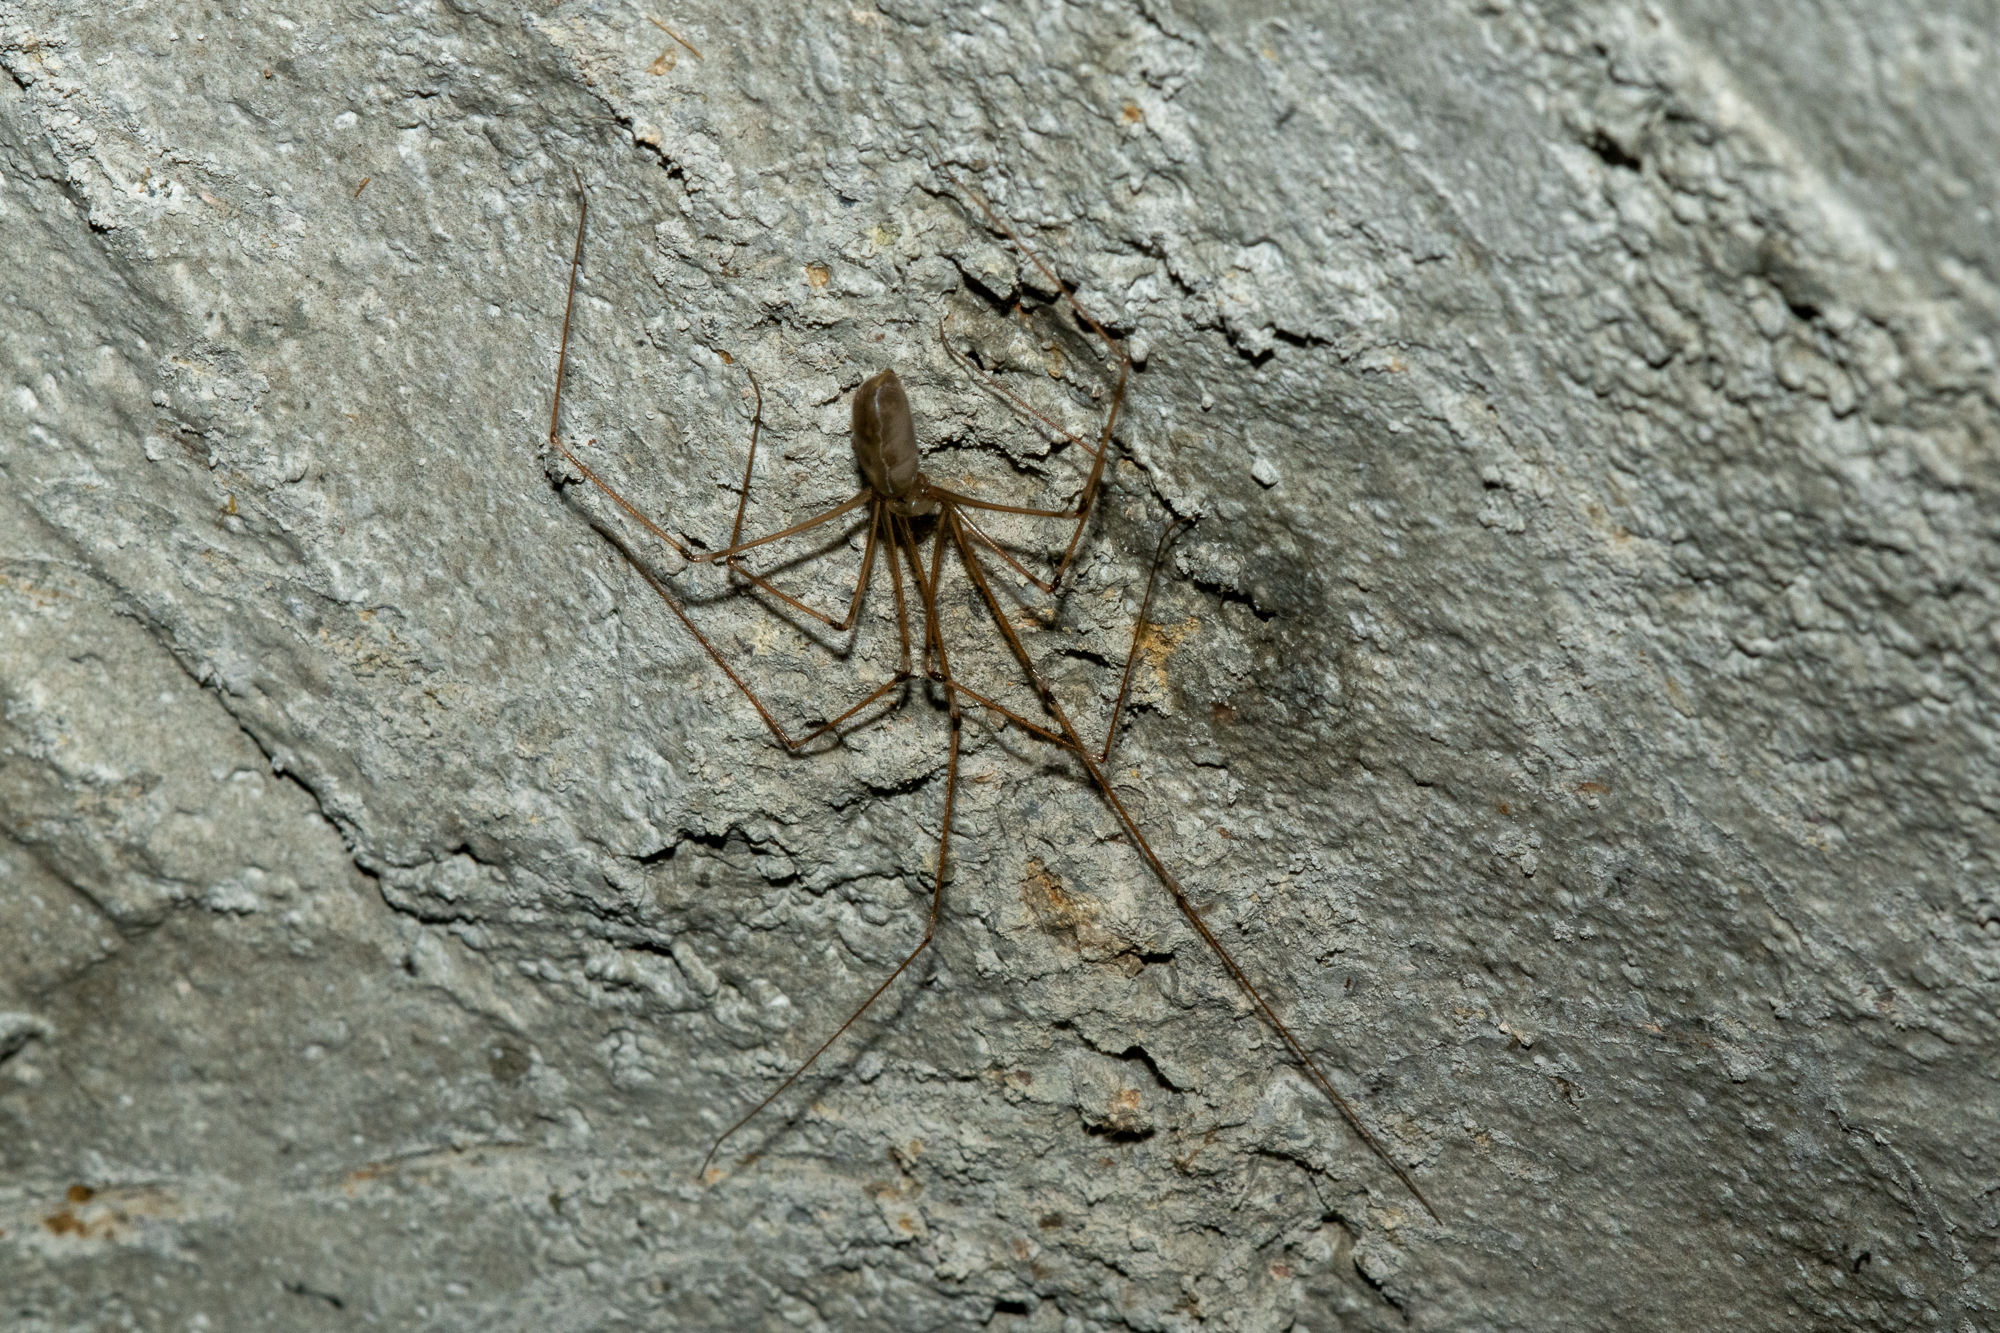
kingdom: Animalia
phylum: Arthropoda
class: Arachnida
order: Araneae
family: Pholcidae
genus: Pholcus
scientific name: Pholcus phalangioides
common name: Longbodied cellar spider
